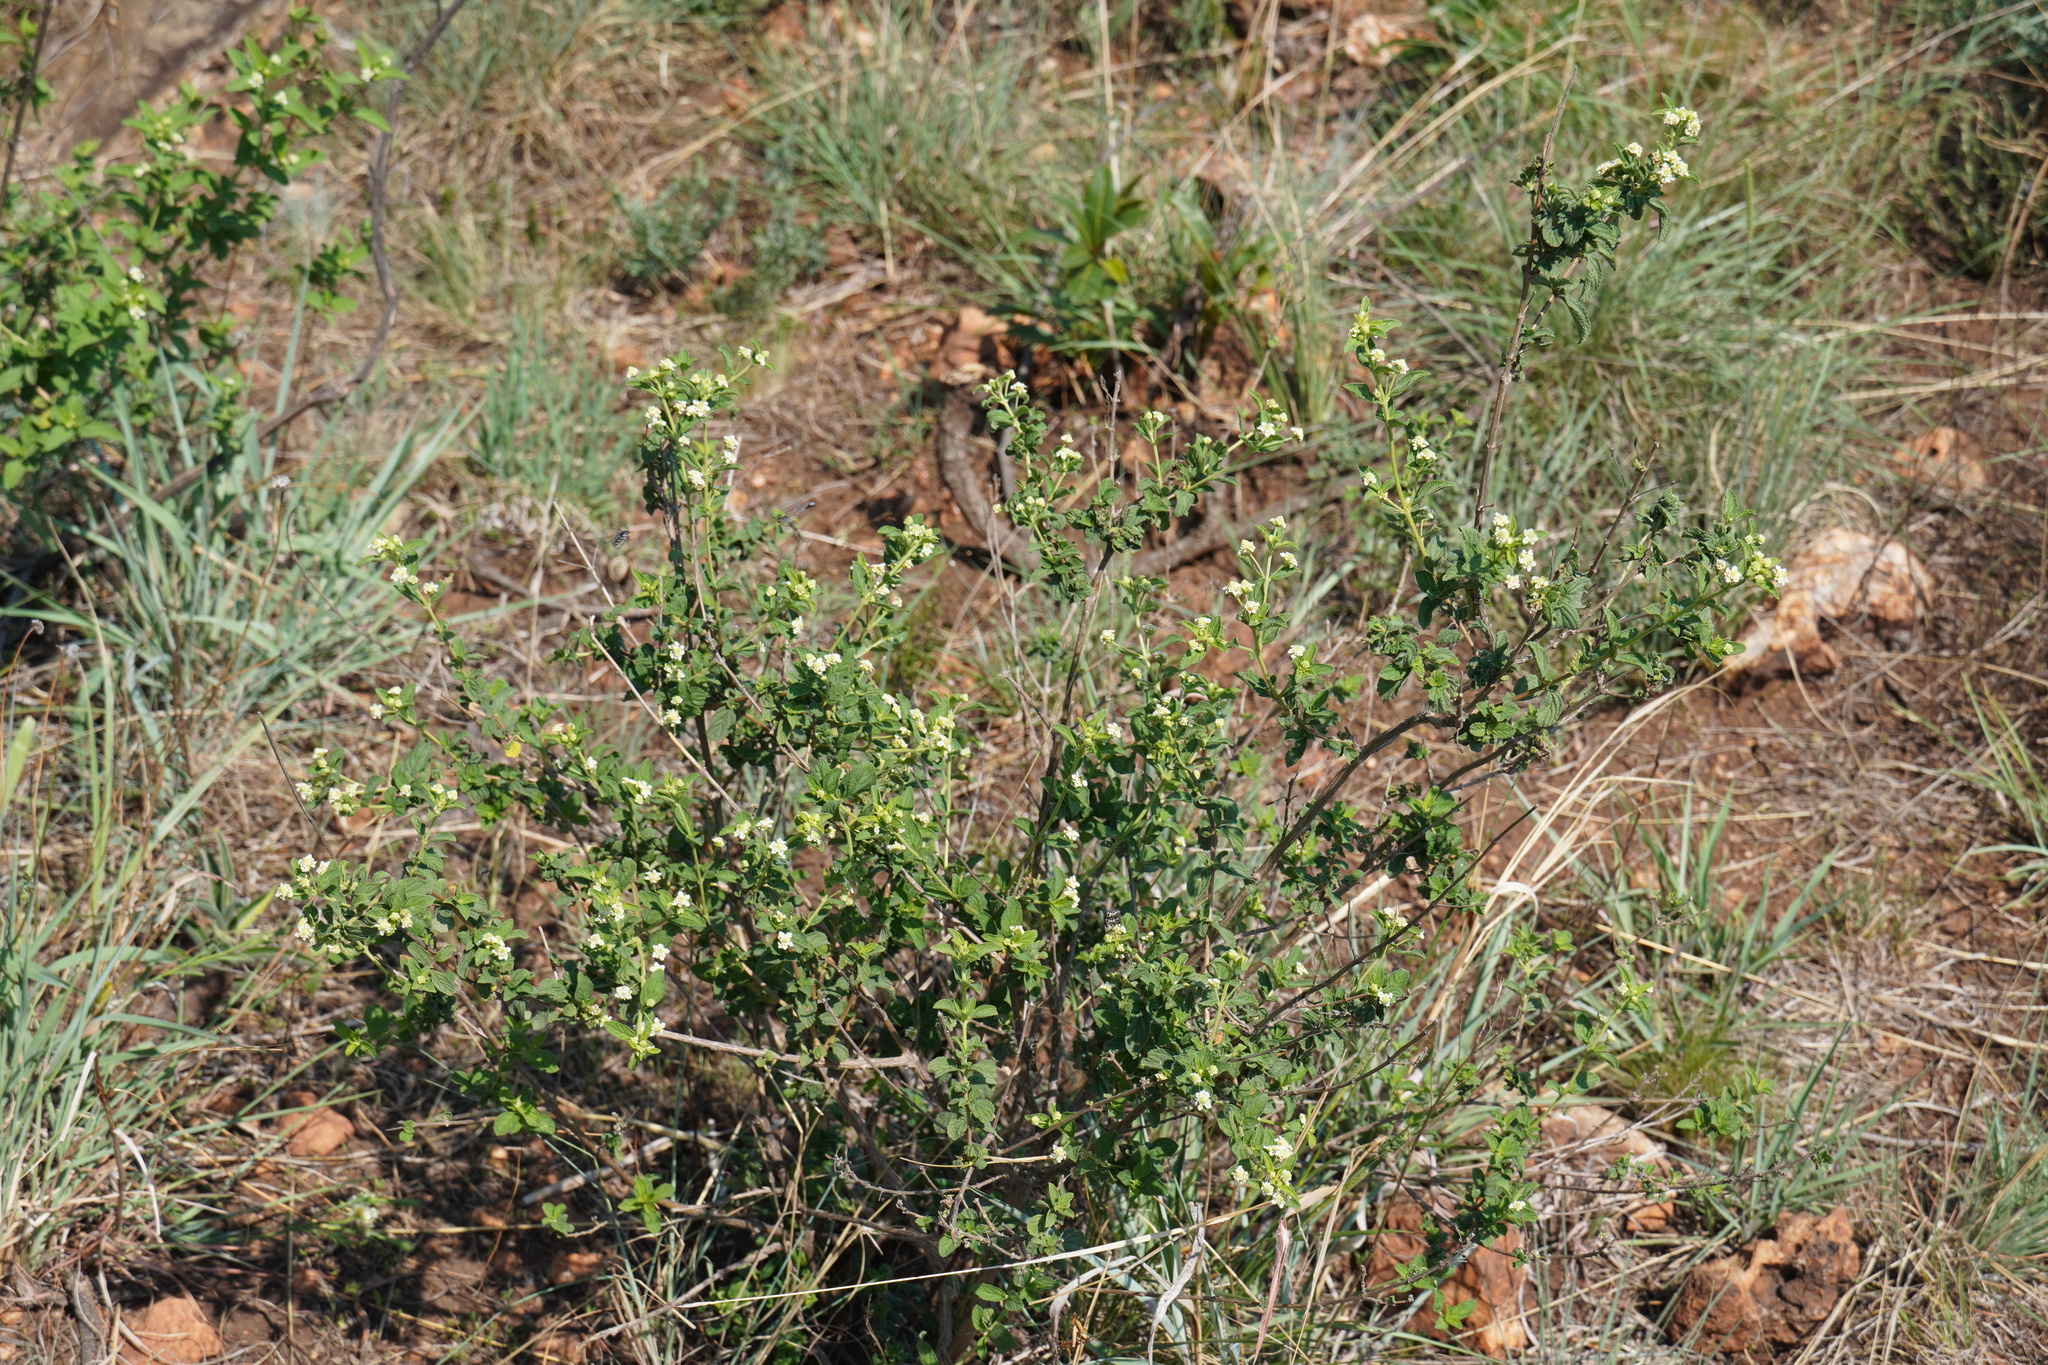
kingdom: Plantae
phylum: Tracheophyta
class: Magnoliopsida
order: Lamiales
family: Verbenaceae
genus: Lippia
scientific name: Lippia javanica
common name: Lemonbush
